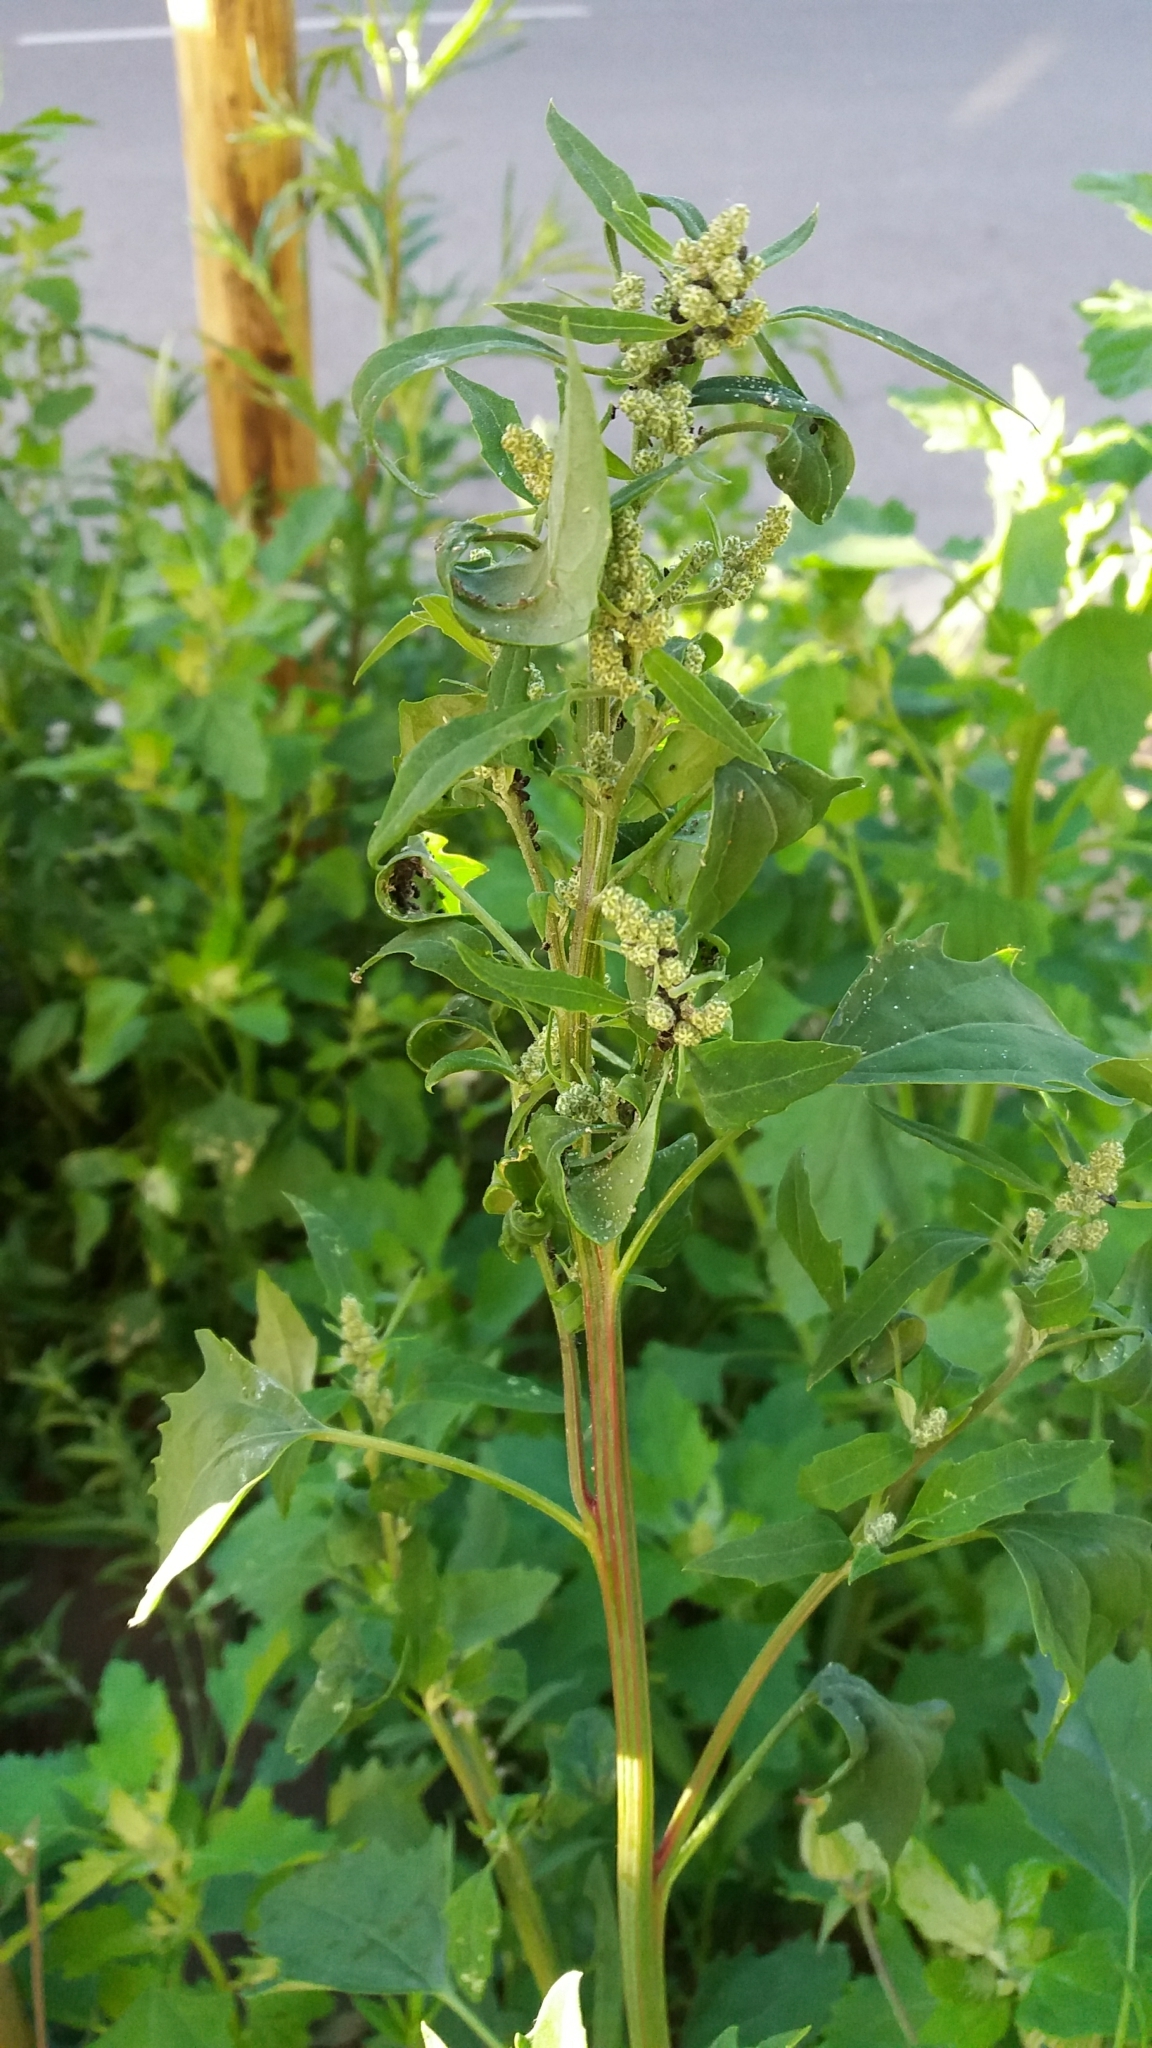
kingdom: Plantae
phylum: Tracheophyta
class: Magnoliopsida
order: Caryophyllales
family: Amaranthaceae
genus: Chenopodium
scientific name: Chenopodium album
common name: Fat-hen
